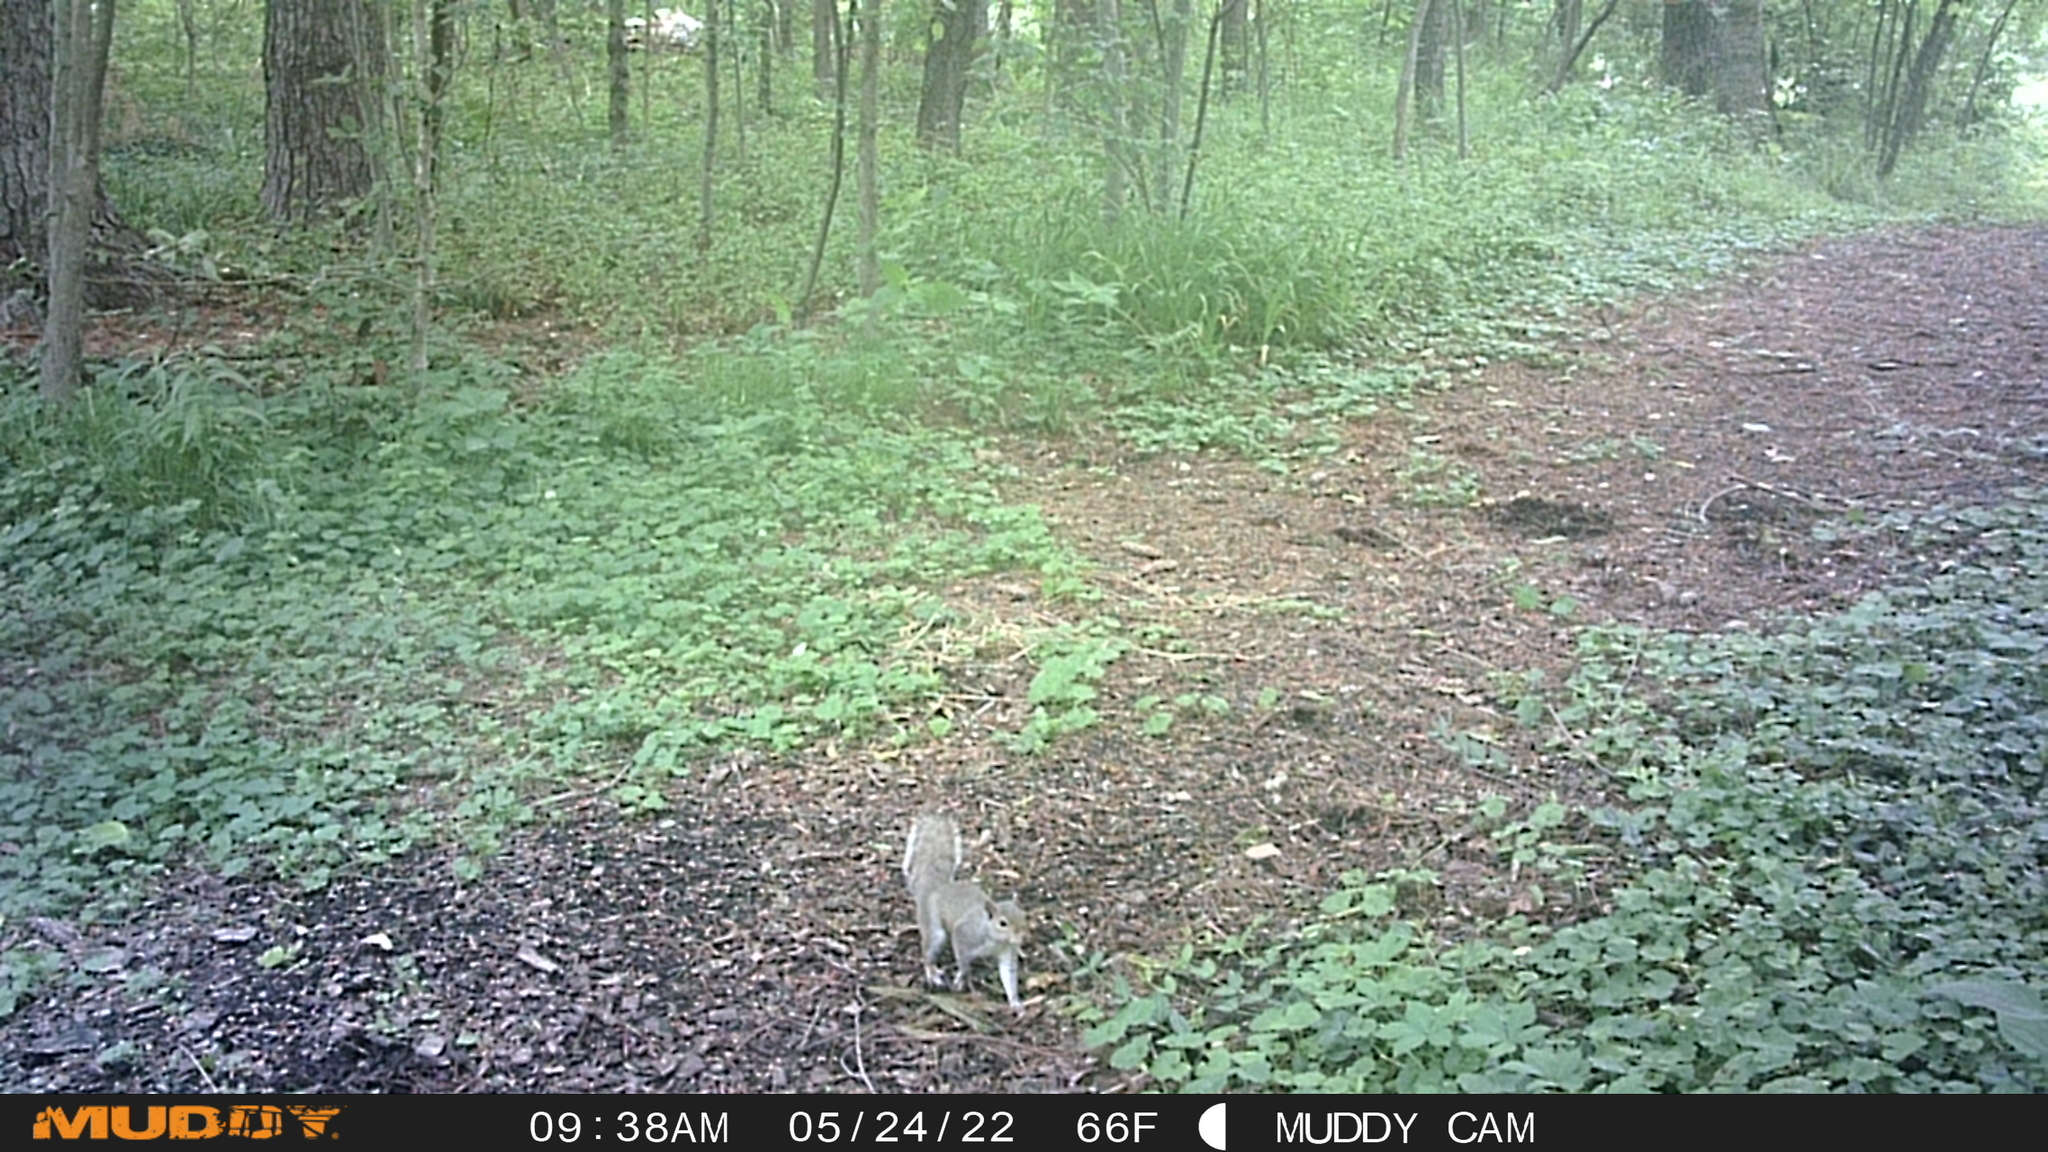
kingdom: Animalia
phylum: Chordata
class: Mammalia
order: Rodentia
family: Sciuridae
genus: Sciurus
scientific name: Sciurus carolinensis
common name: Eastern gray squirrel
